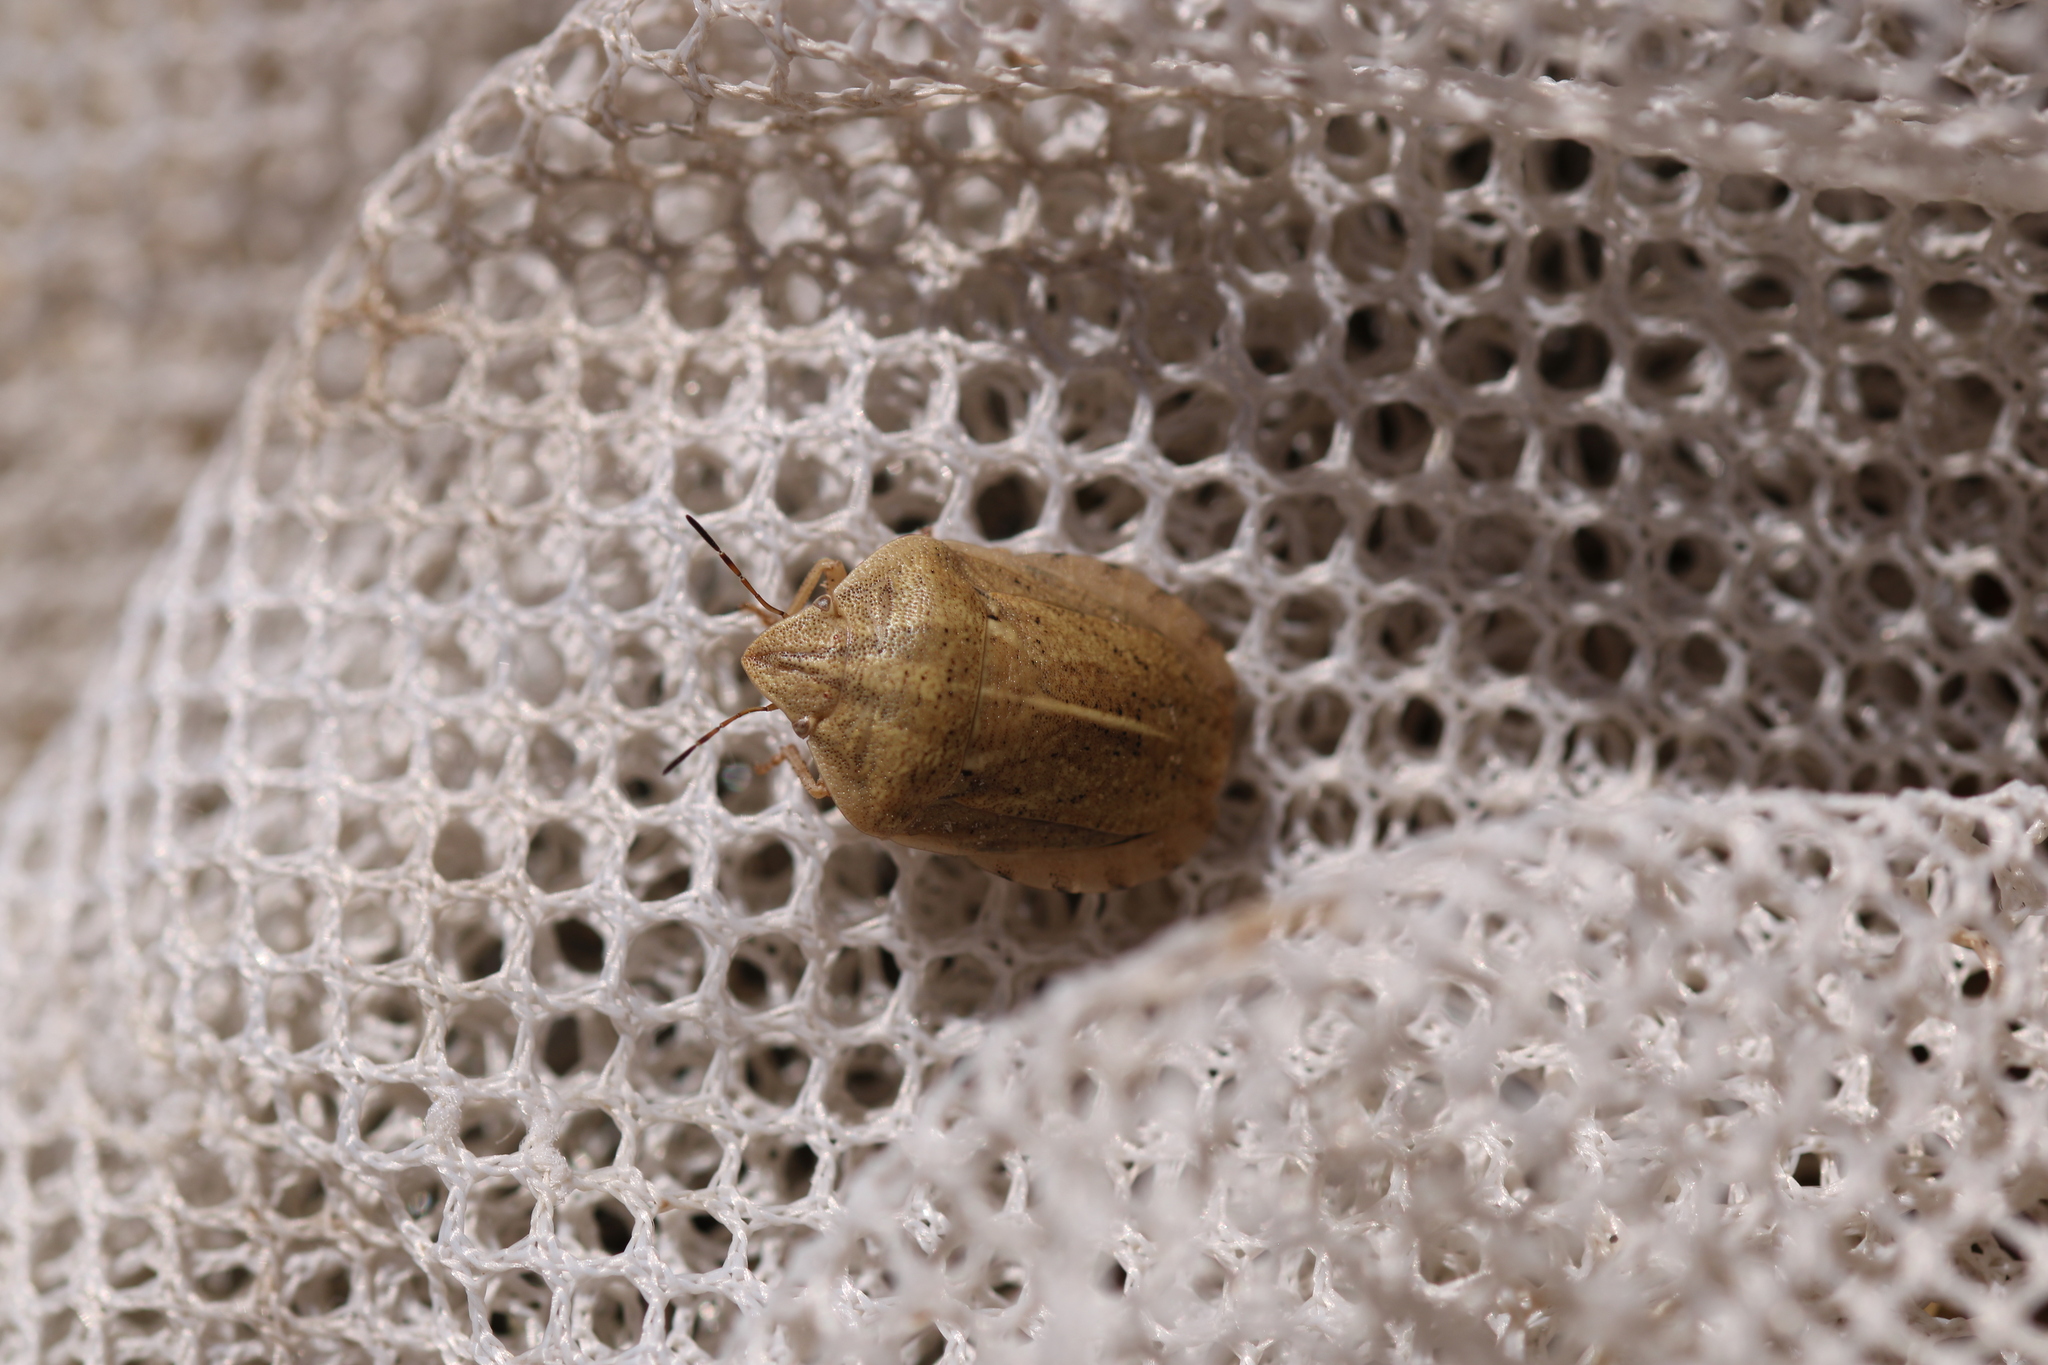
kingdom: Animalia
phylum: Arthropoda
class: Insecta
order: Hemiptera
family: Scutelleridae
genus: Eurygaster
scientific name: Eurygaster austriaca
